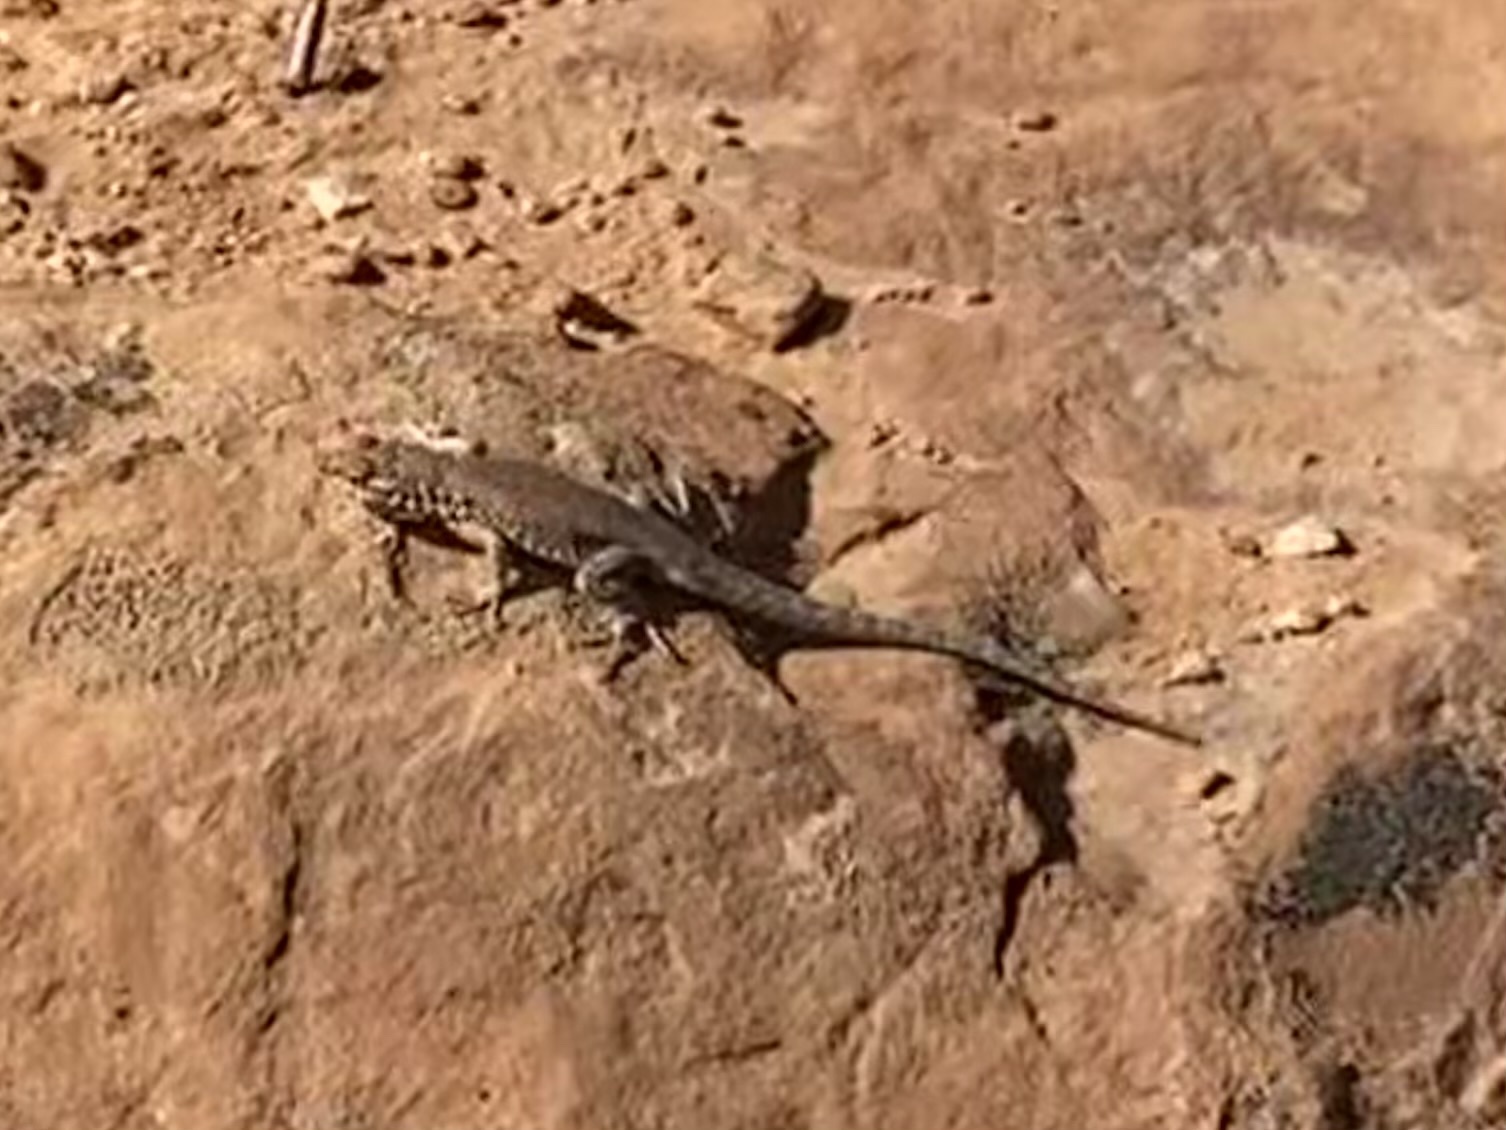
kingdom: Animalia
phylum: Chordata
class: Squamata
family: Phrynosomatidae
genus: Uta
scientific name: Uta stansburiana
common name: Side-blotched lizard
